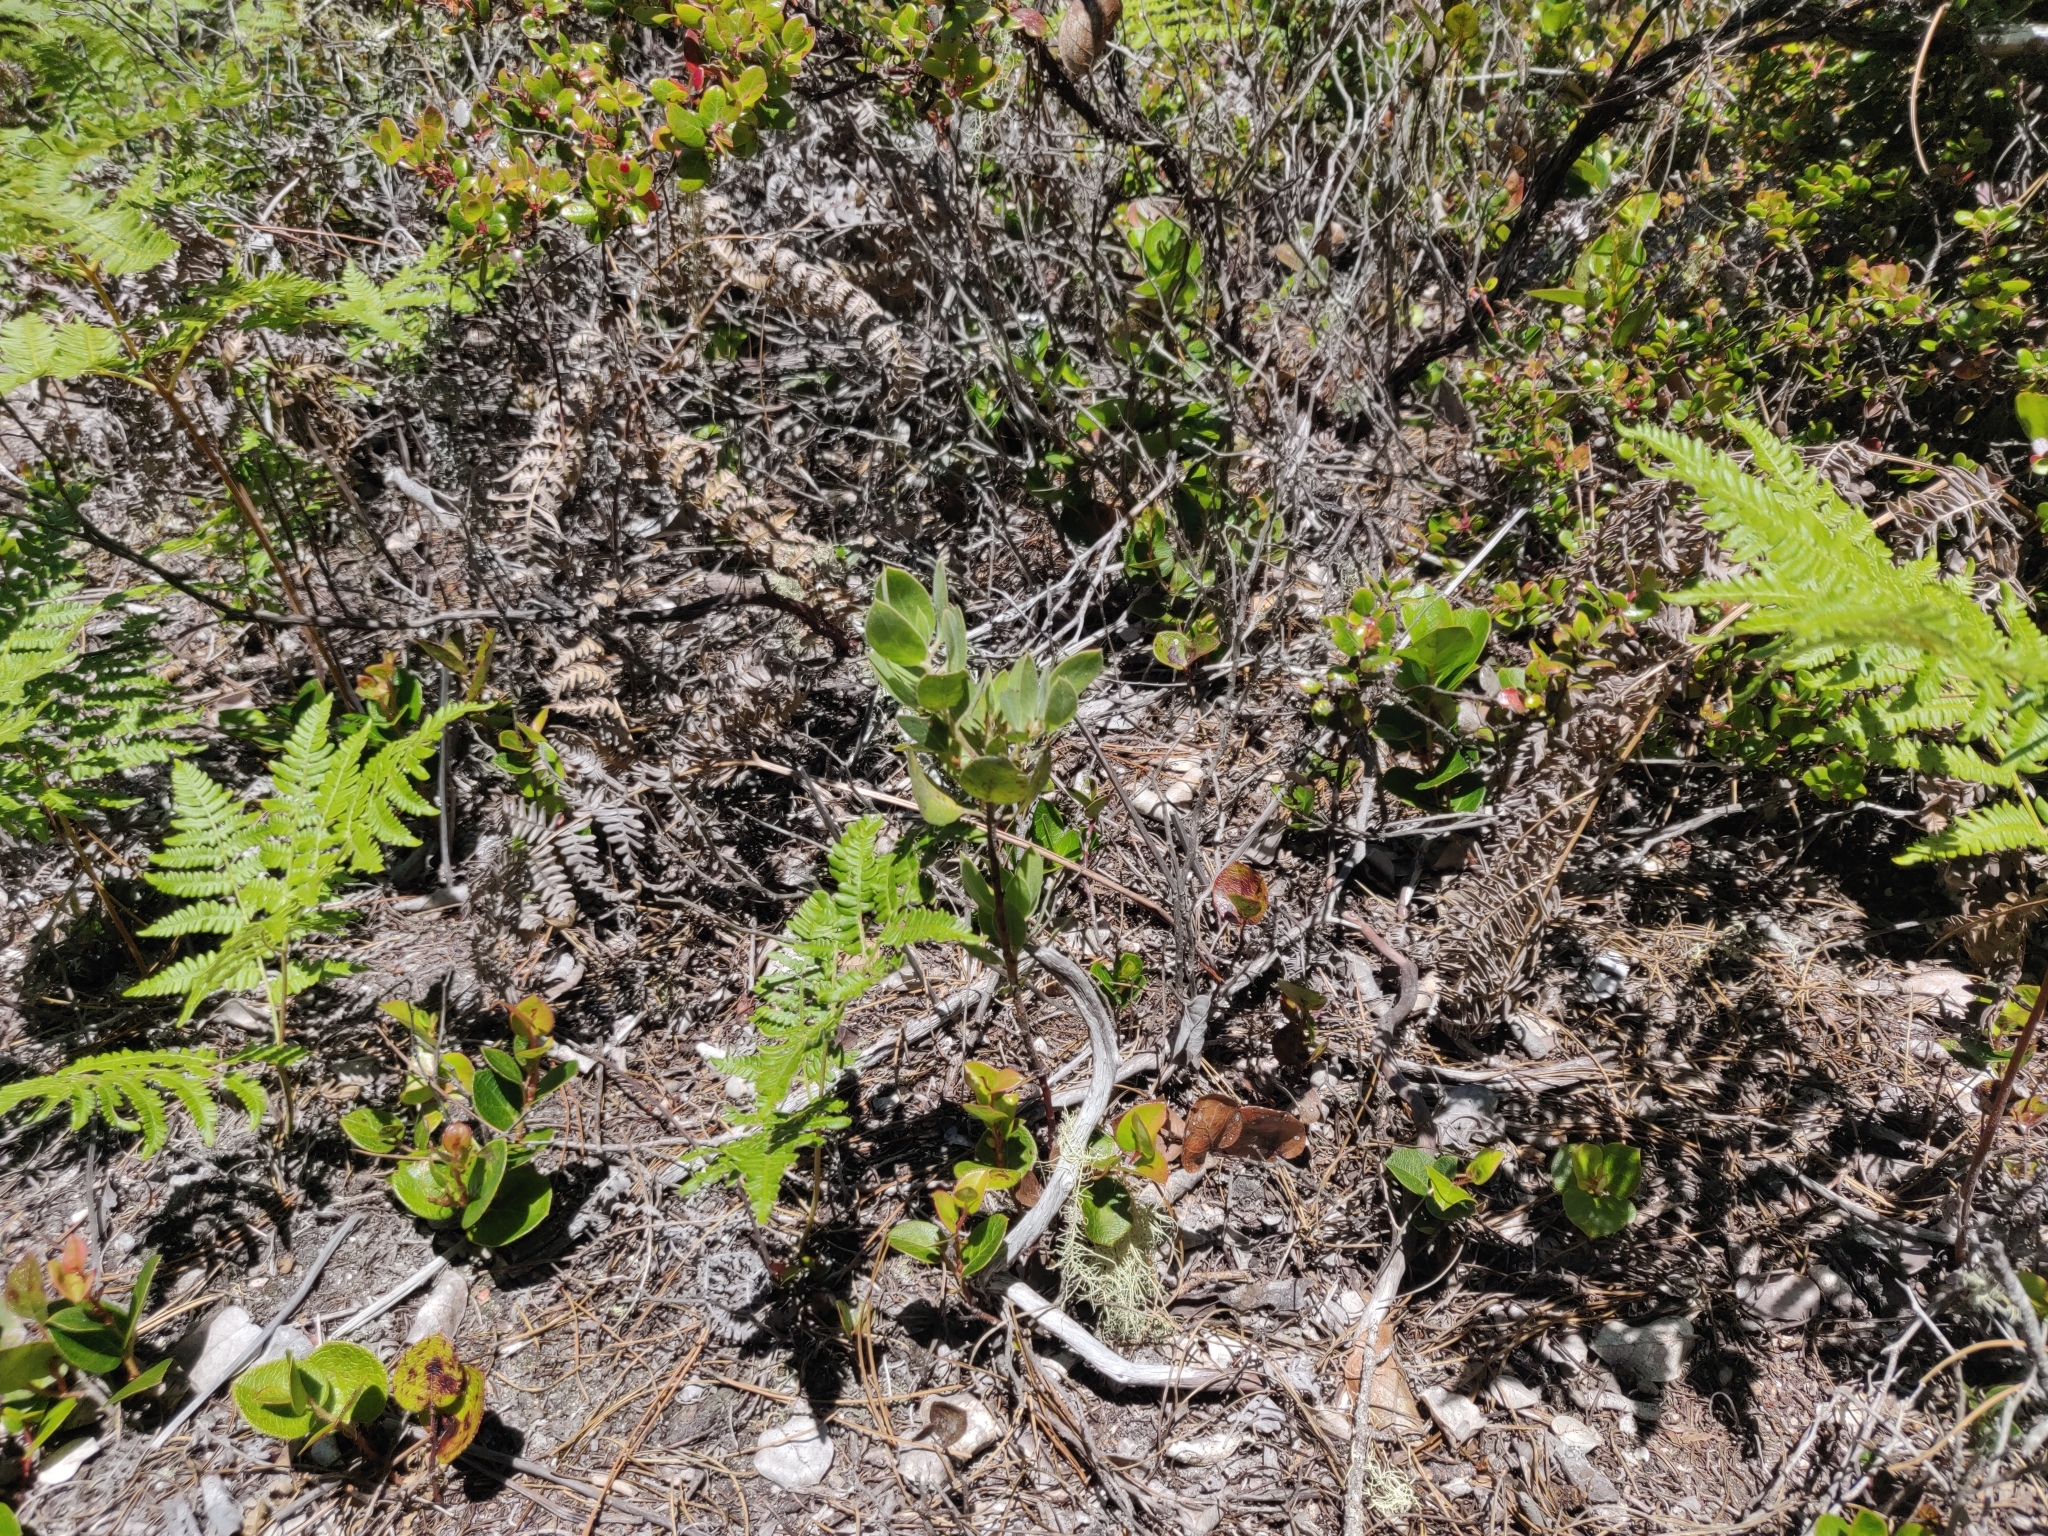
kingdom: Plantae
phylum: Tracheophyta
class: Magnoliopsida
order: Ericales
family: Ericaceae
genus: Arctostaphylos
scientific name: Arctostaphylos columbiana
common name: Bristly bearberry
